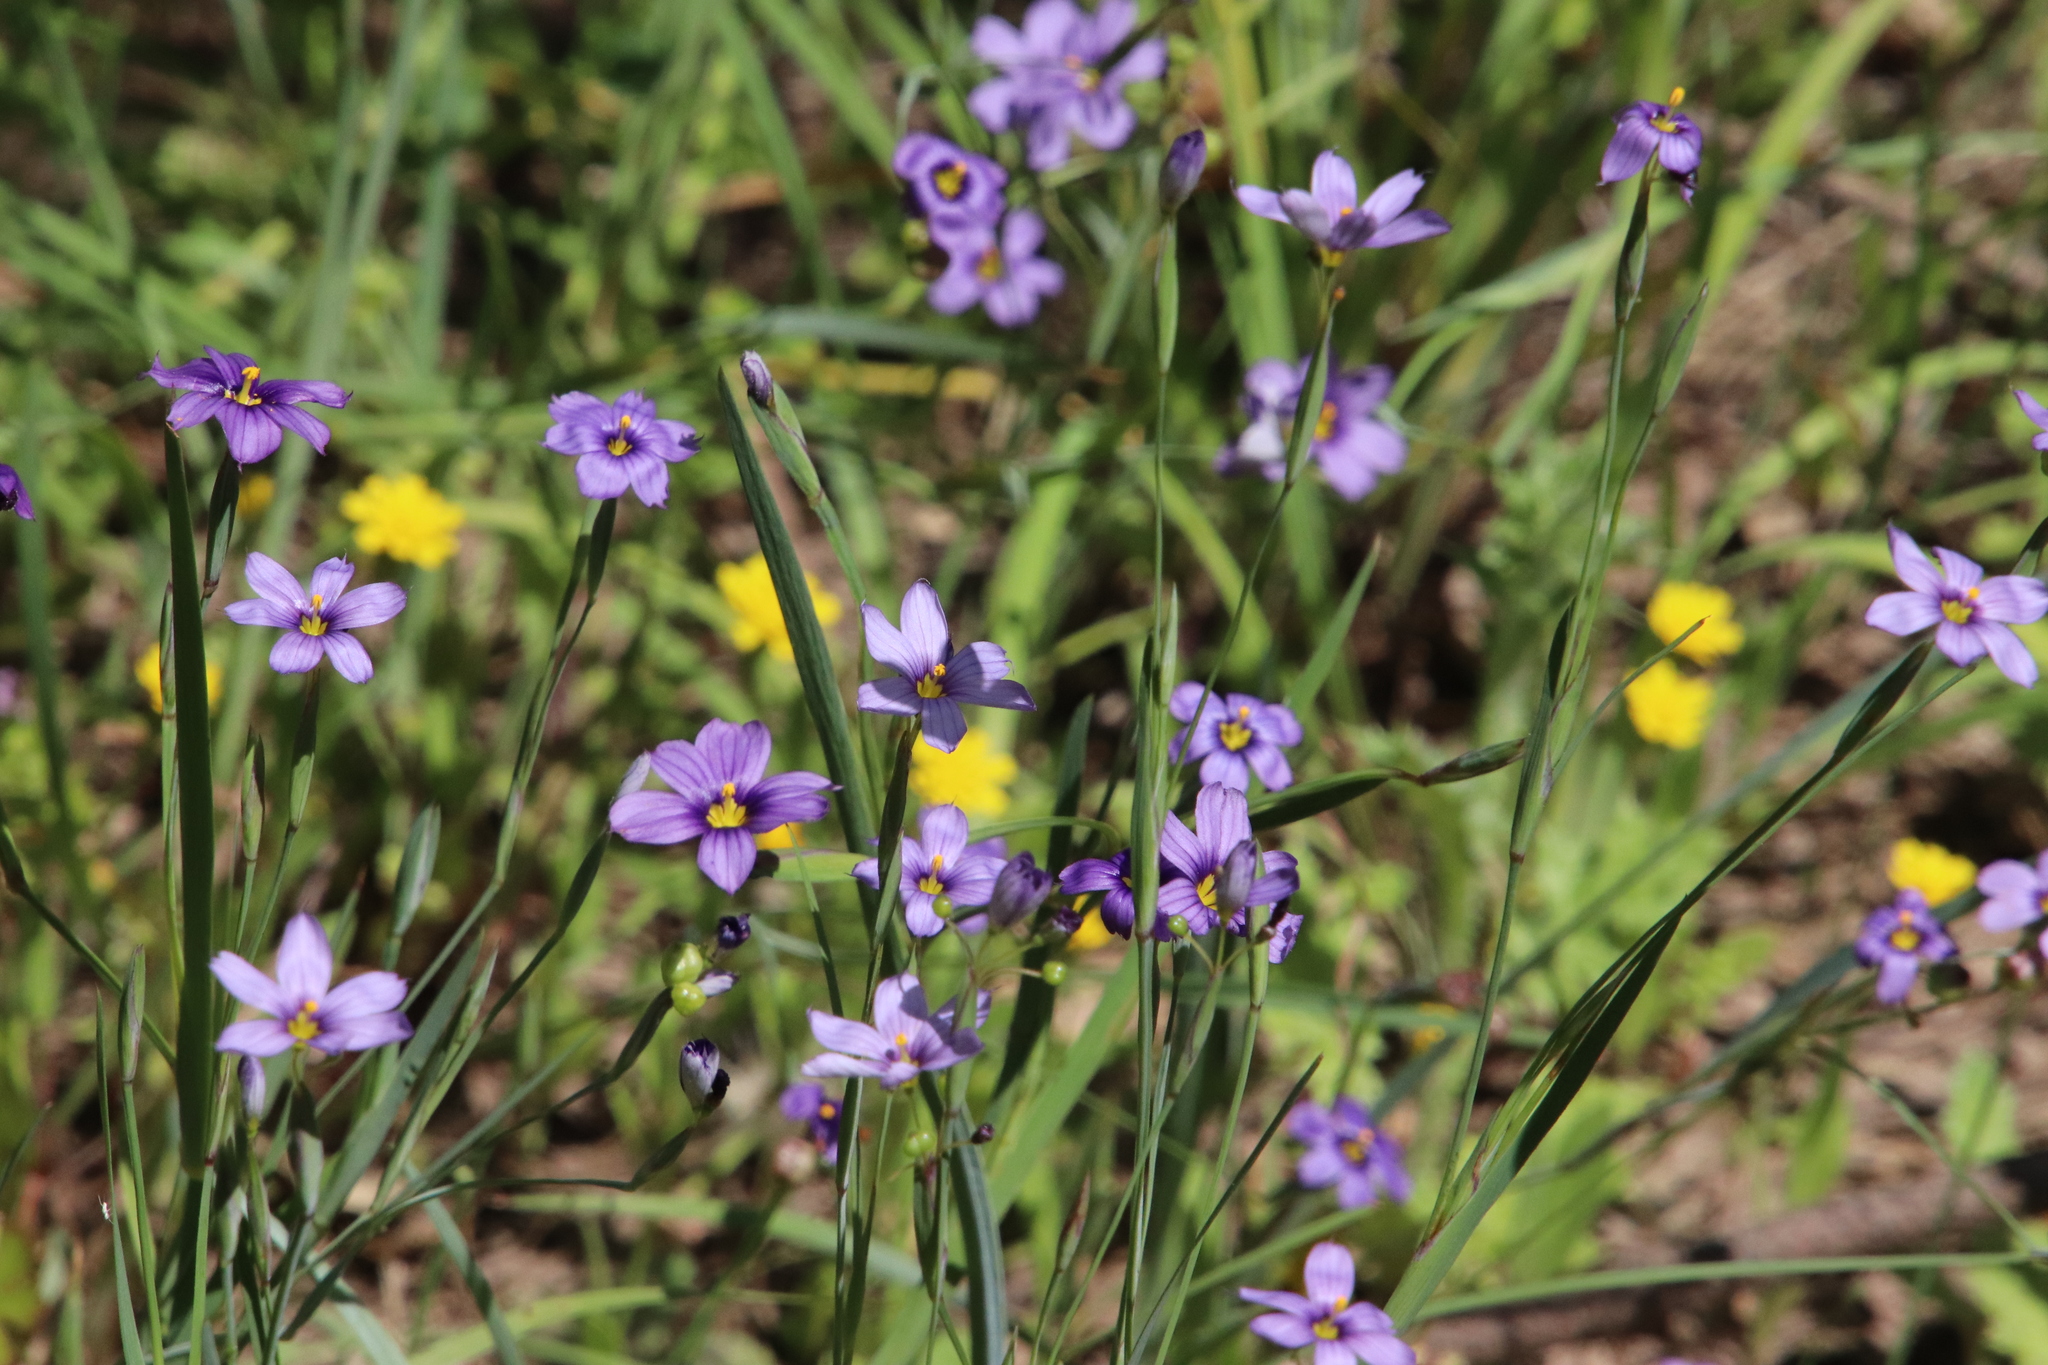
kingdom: Plantae
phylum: Tracheophyta
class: Liliopsida
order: Asparagales
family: Iridaceae
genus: Sisyrinchium
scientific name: Sisyrinchium bellum
